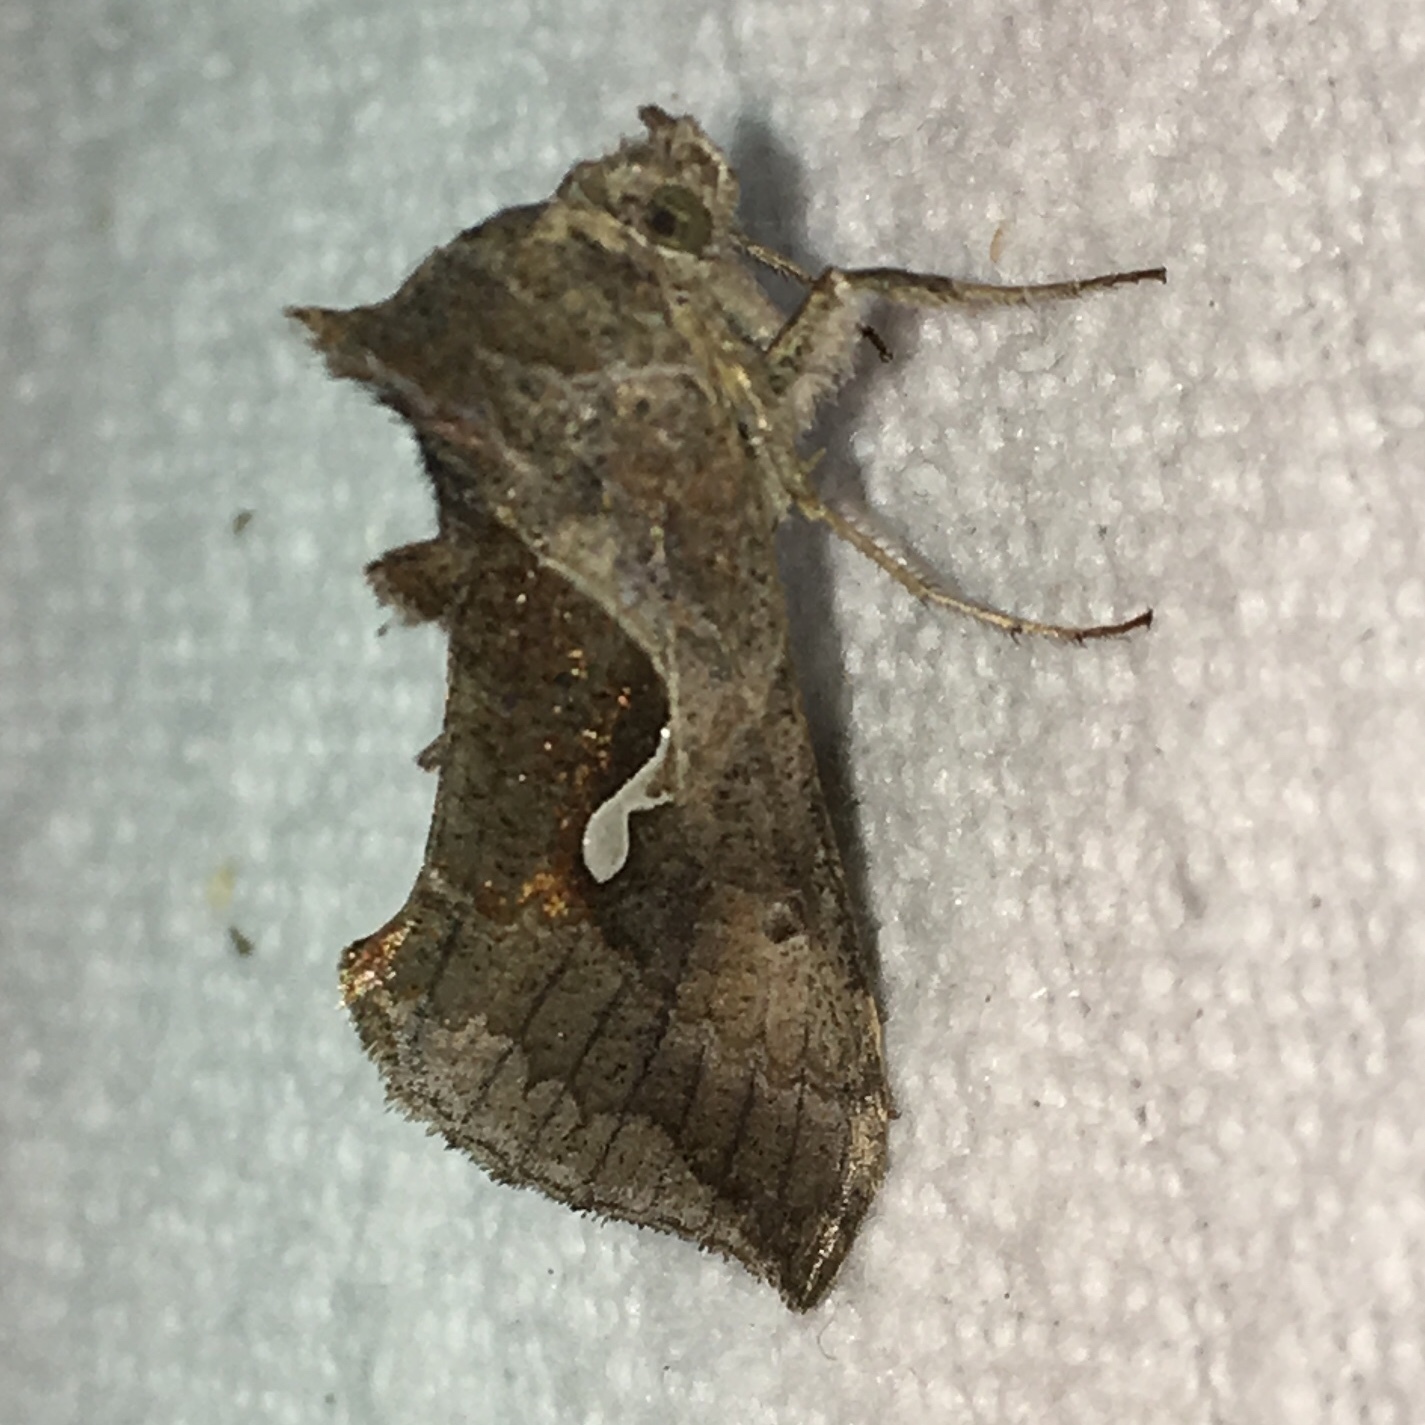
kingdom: Animalia
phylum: Arthropoda
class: Insecta
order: Lepidoptera
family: Noctuidae
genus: Anagrapha
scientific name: Anagrapha falcifera
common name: Celery looper
